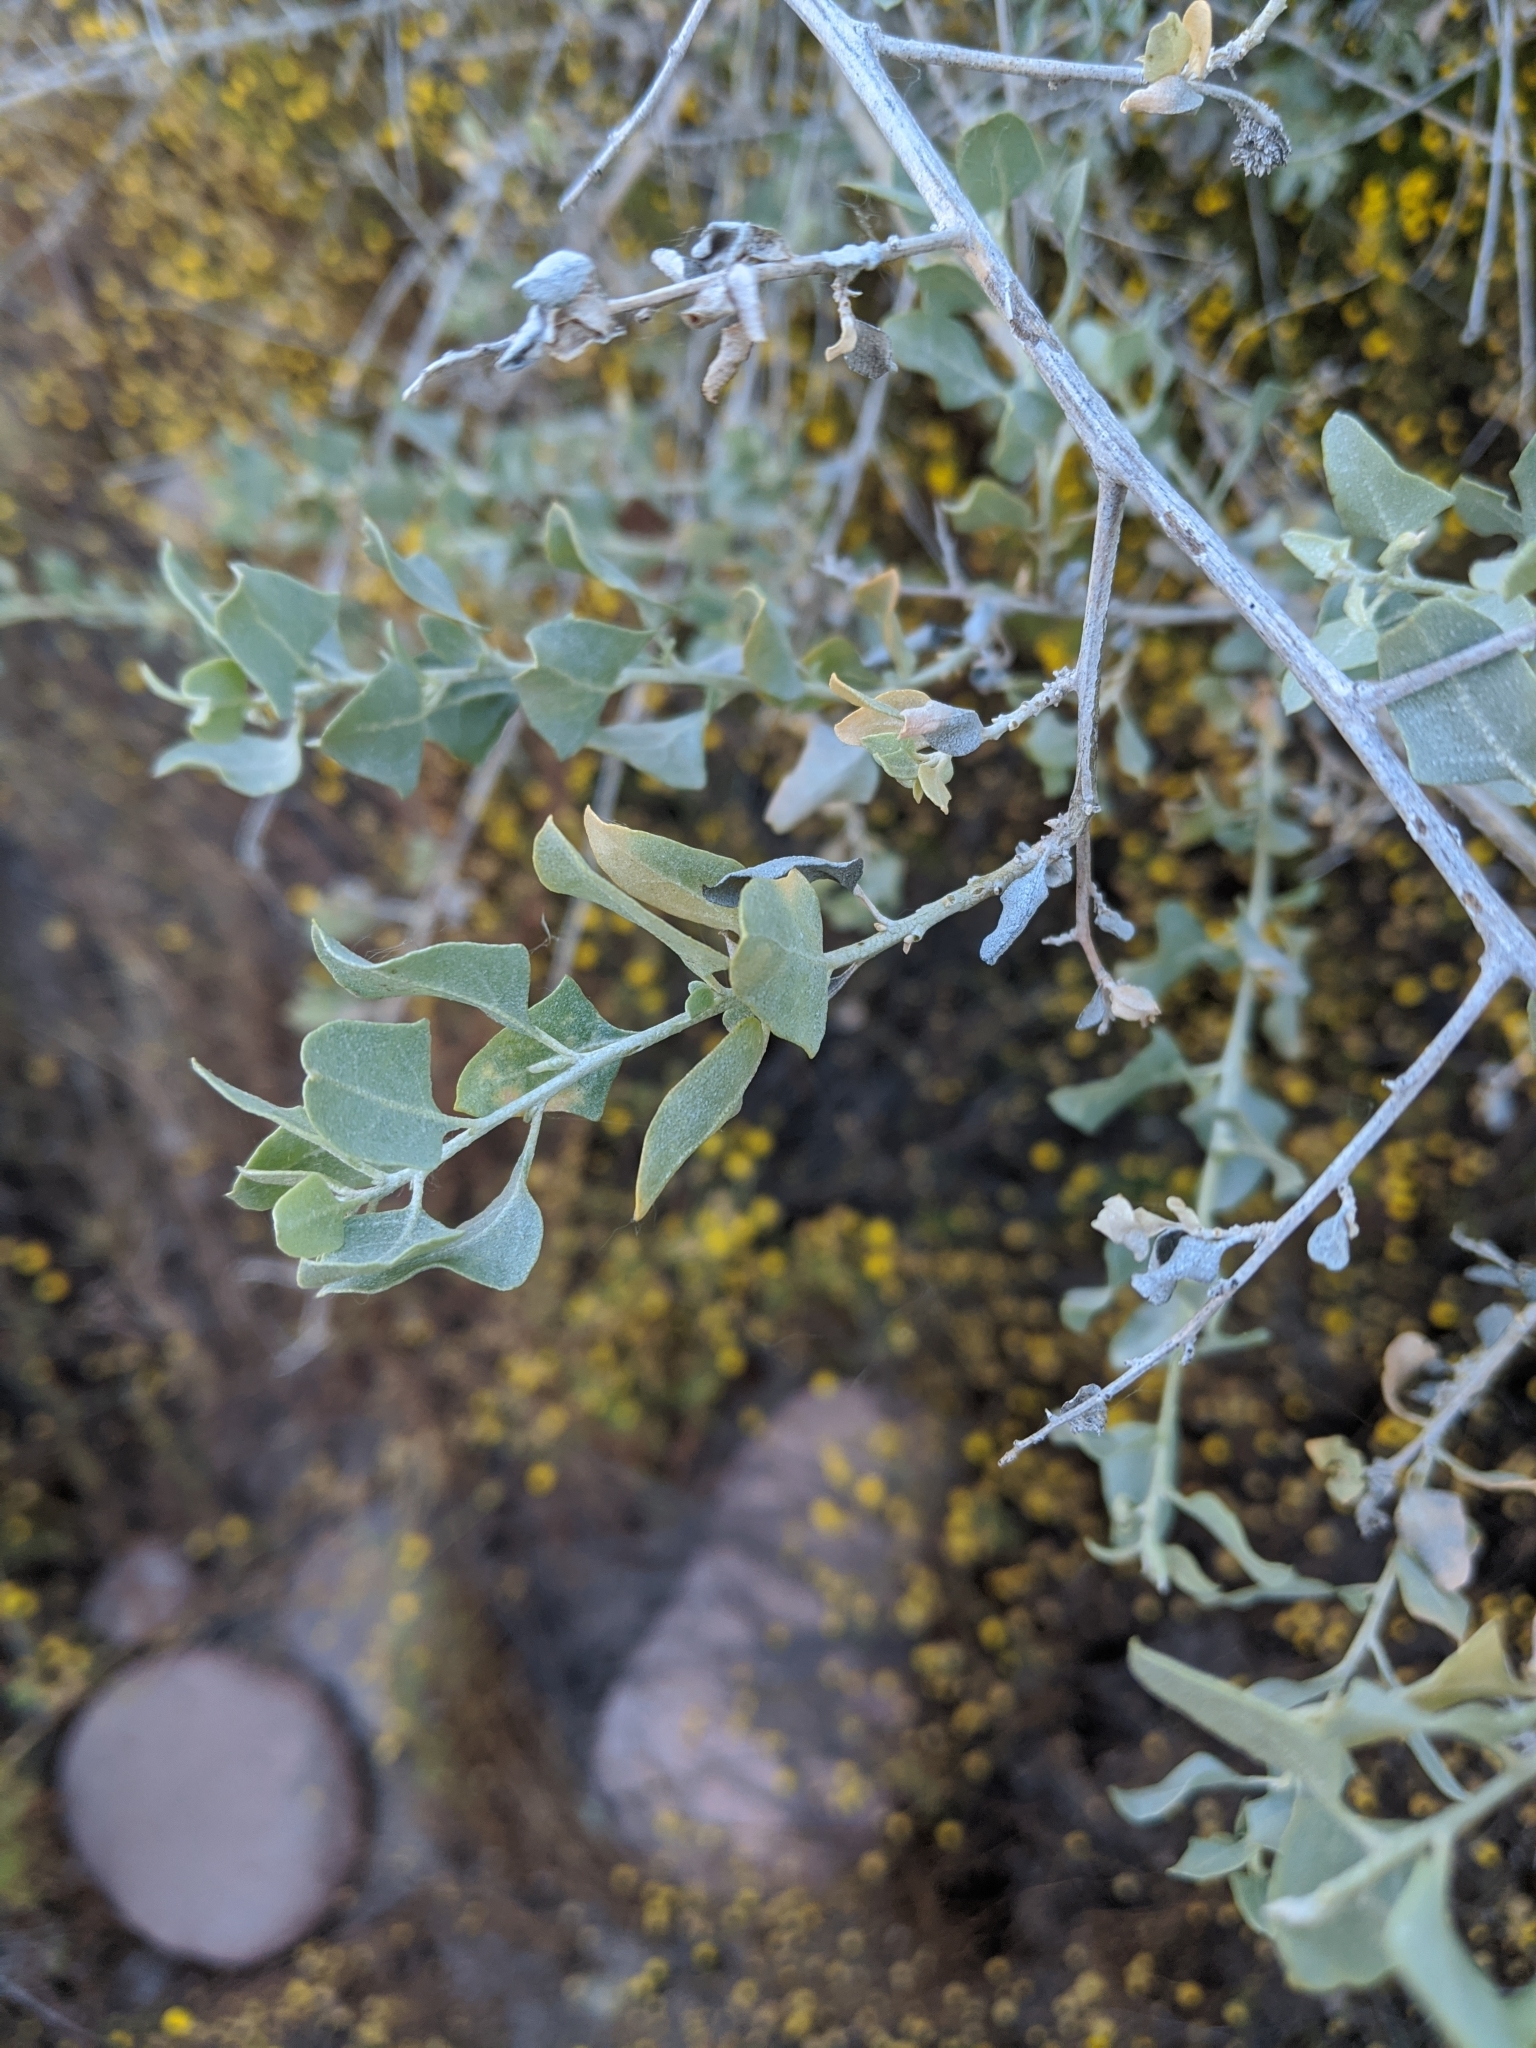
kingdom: Plantae
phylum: Tracheophyta
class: Magnoliopsida
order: Caryophyllales
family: Amaranthaceae
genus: Atriplex
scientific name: Atriplex lentiformis
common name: Big saltbush
